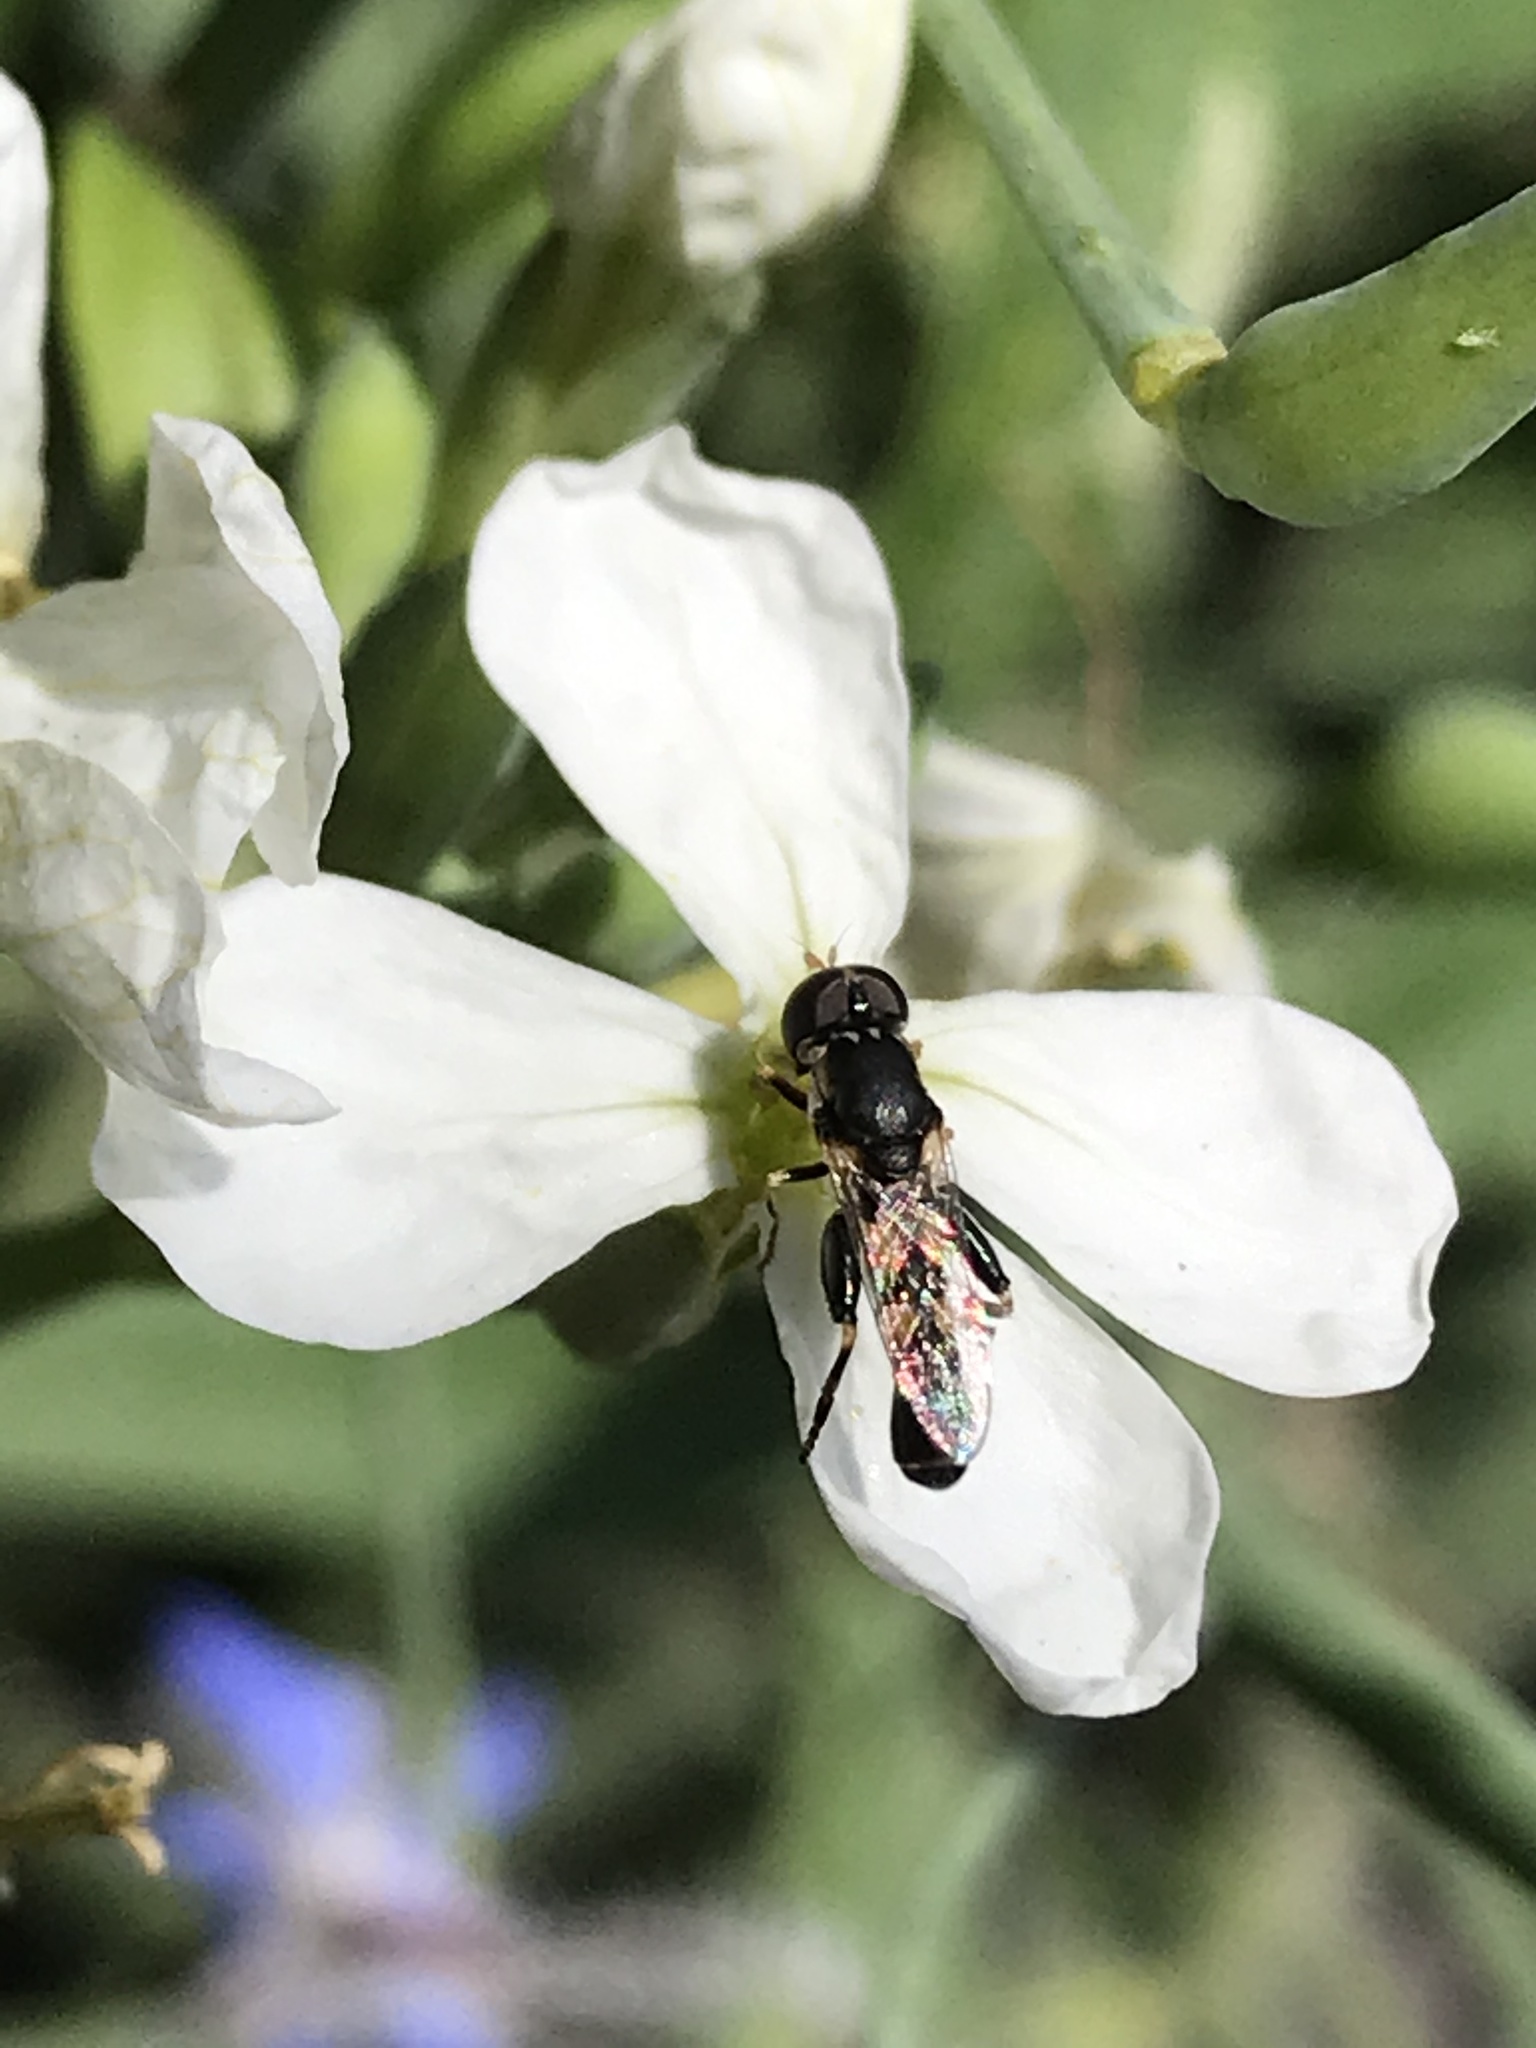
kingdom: Animalia
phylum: Arthropoda
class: Insecta
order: Diptera
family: Syrphidae
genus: Syritta
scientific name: Syritta pipiens
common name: Hover fly
